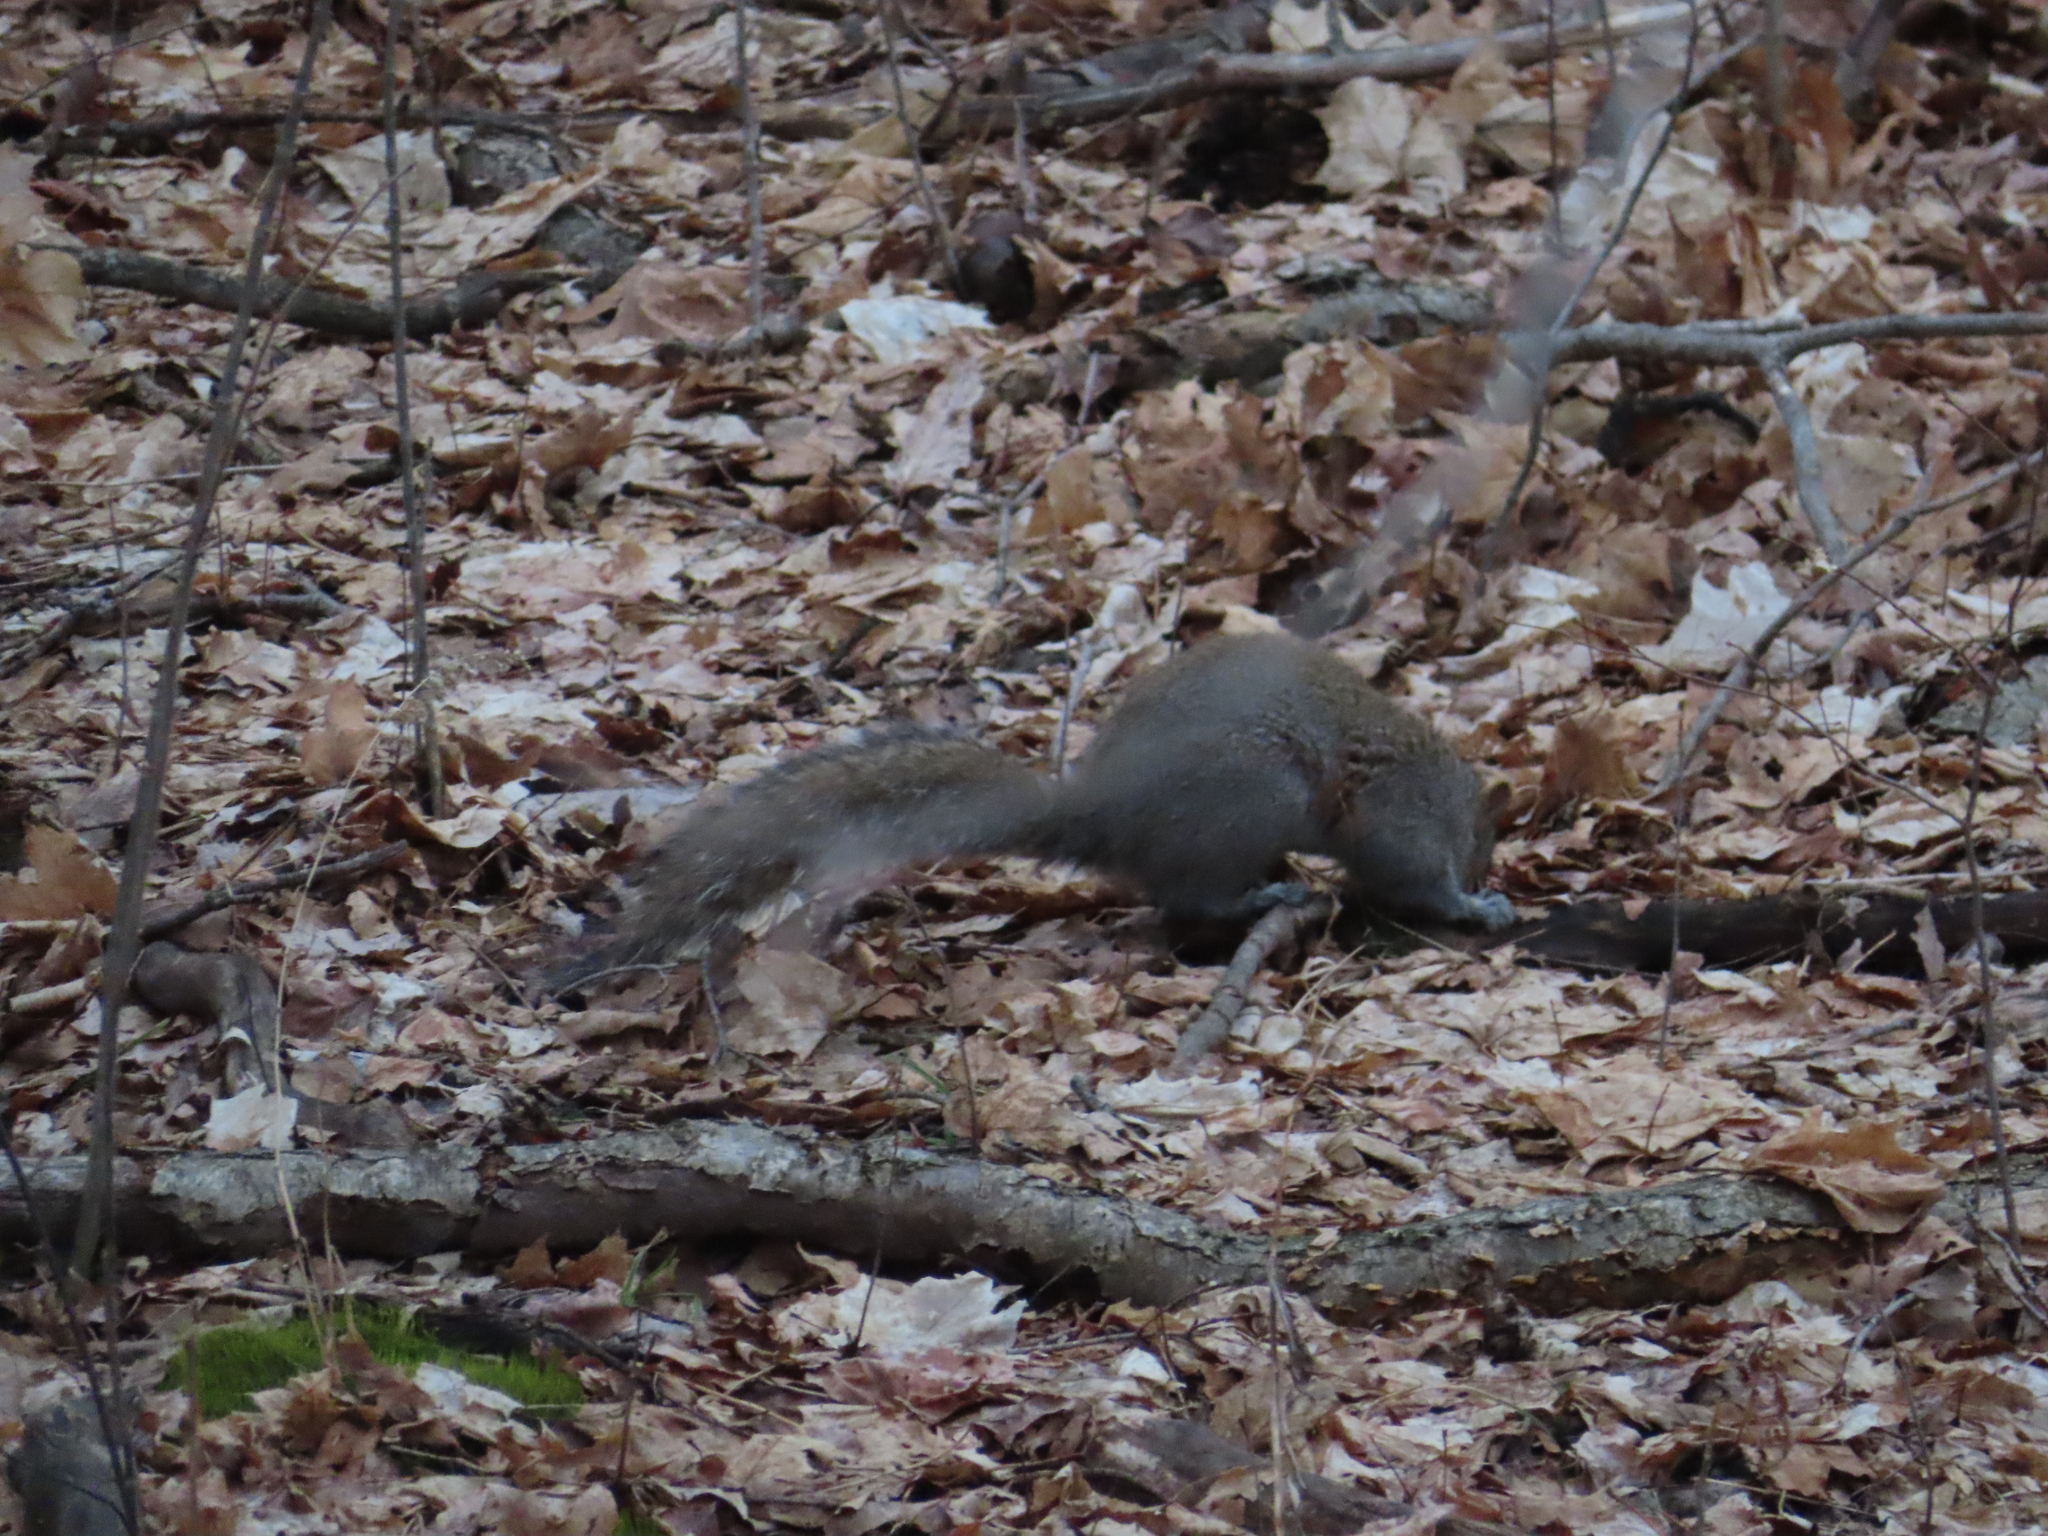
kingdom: Animalia
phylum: Chordata
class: Mammalia
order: Rodentia
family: Sciuridae
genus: Sciurus
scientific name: Sciurus carolinensis
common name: Eastern gray squirrel
